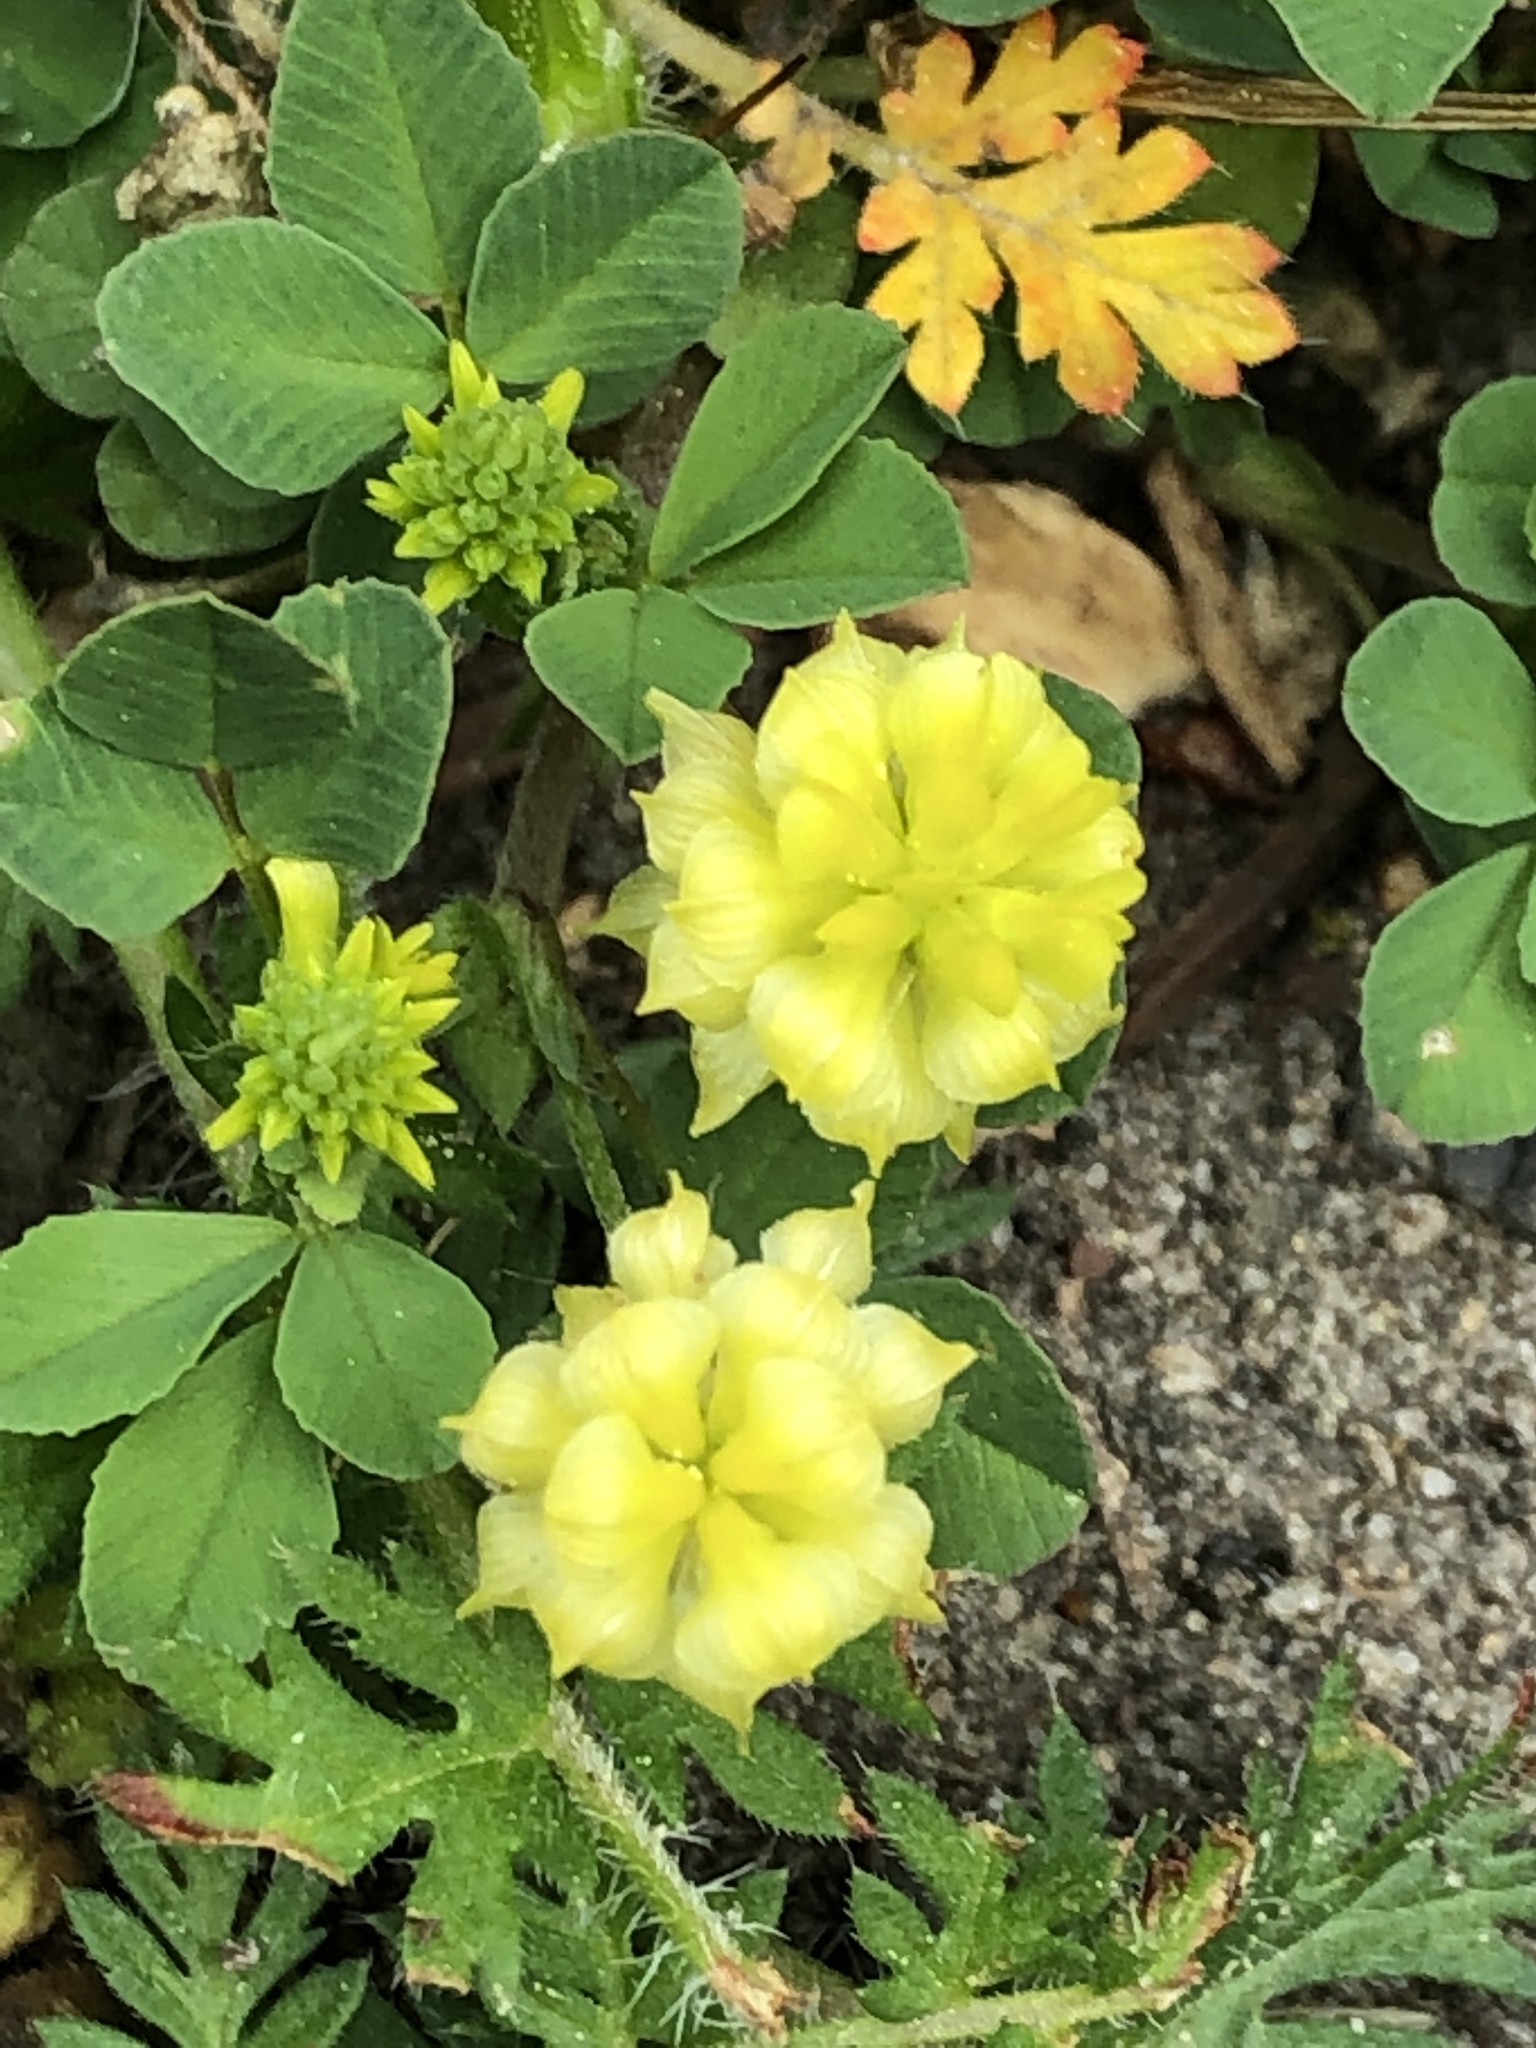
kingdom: Plantae
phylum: Tracheophyta
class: Magnoliopsida
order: Fabales
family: Fabaceae
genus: Trifolium
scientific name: Trifolium campestre
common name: Field clover
